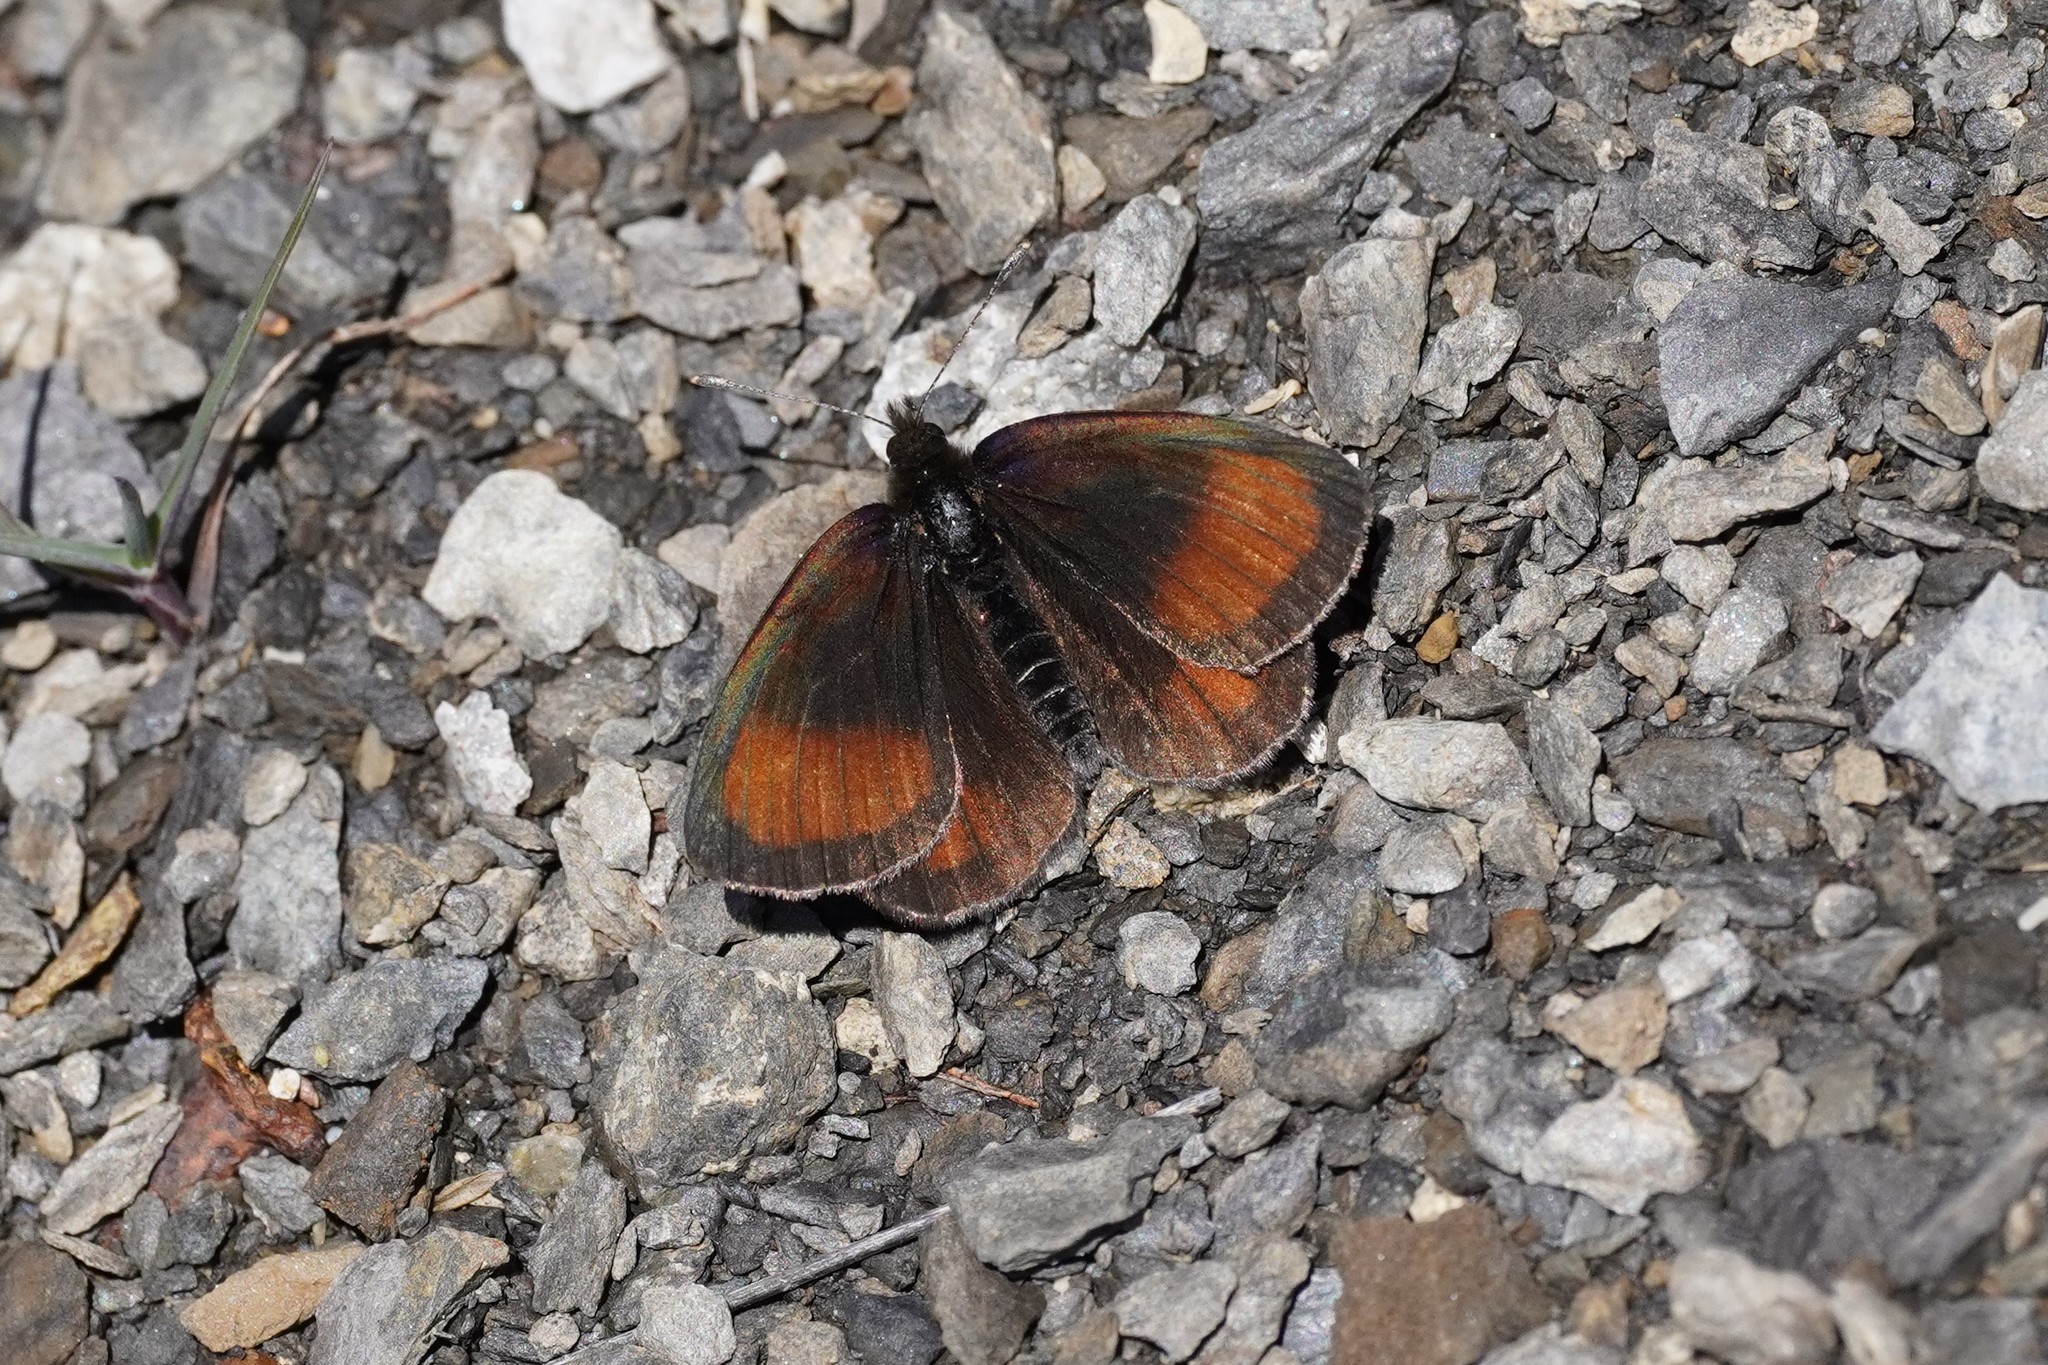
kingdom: Animalia
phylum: Arthropoda
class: Insecta
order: Lepidoptera
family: Nymphalidae
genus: Erebia
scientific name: Erebia gorge
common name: Silky ringlet
